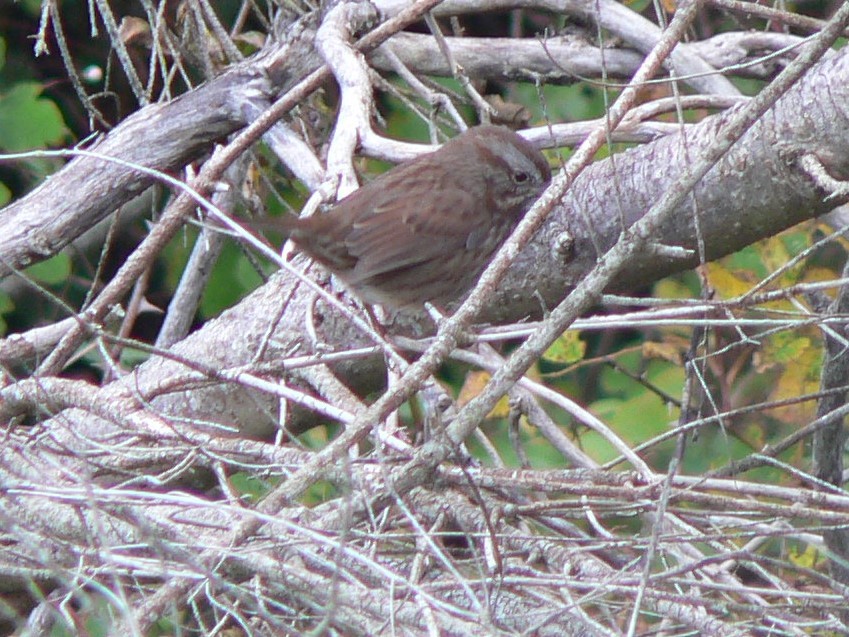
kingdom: Animalia
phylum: Chordata
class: Aves
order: Passeriformes
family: Passerellidae
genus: Melospiza
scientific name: Melospiza melodia
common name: Song sparrow
